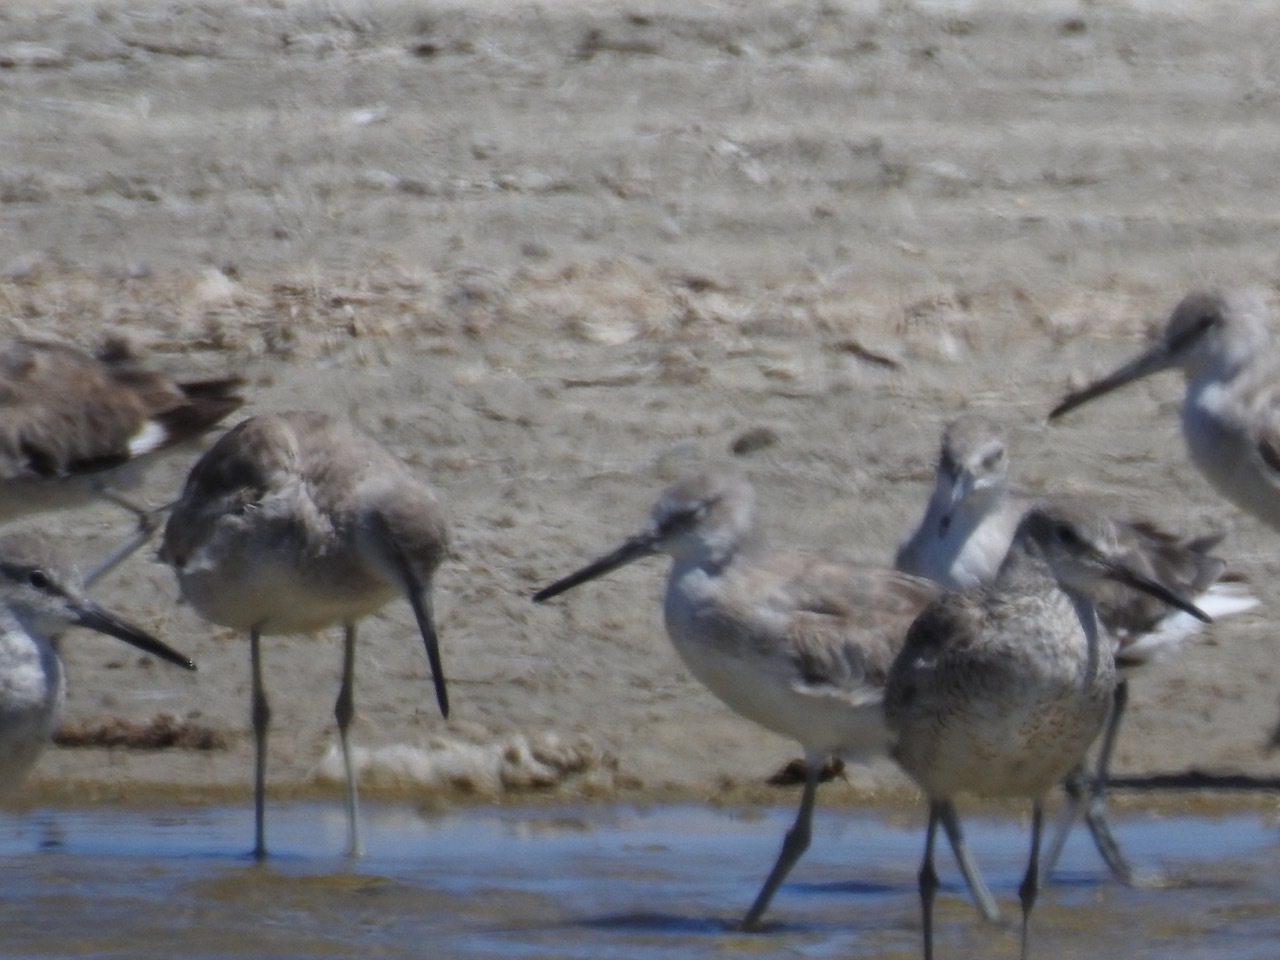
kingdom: Animalia
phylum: Chordata
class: Aves
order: Charadriiformes
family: Scolopacidae
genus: Tringa
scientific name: Tringa semipalmata
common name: Willet
